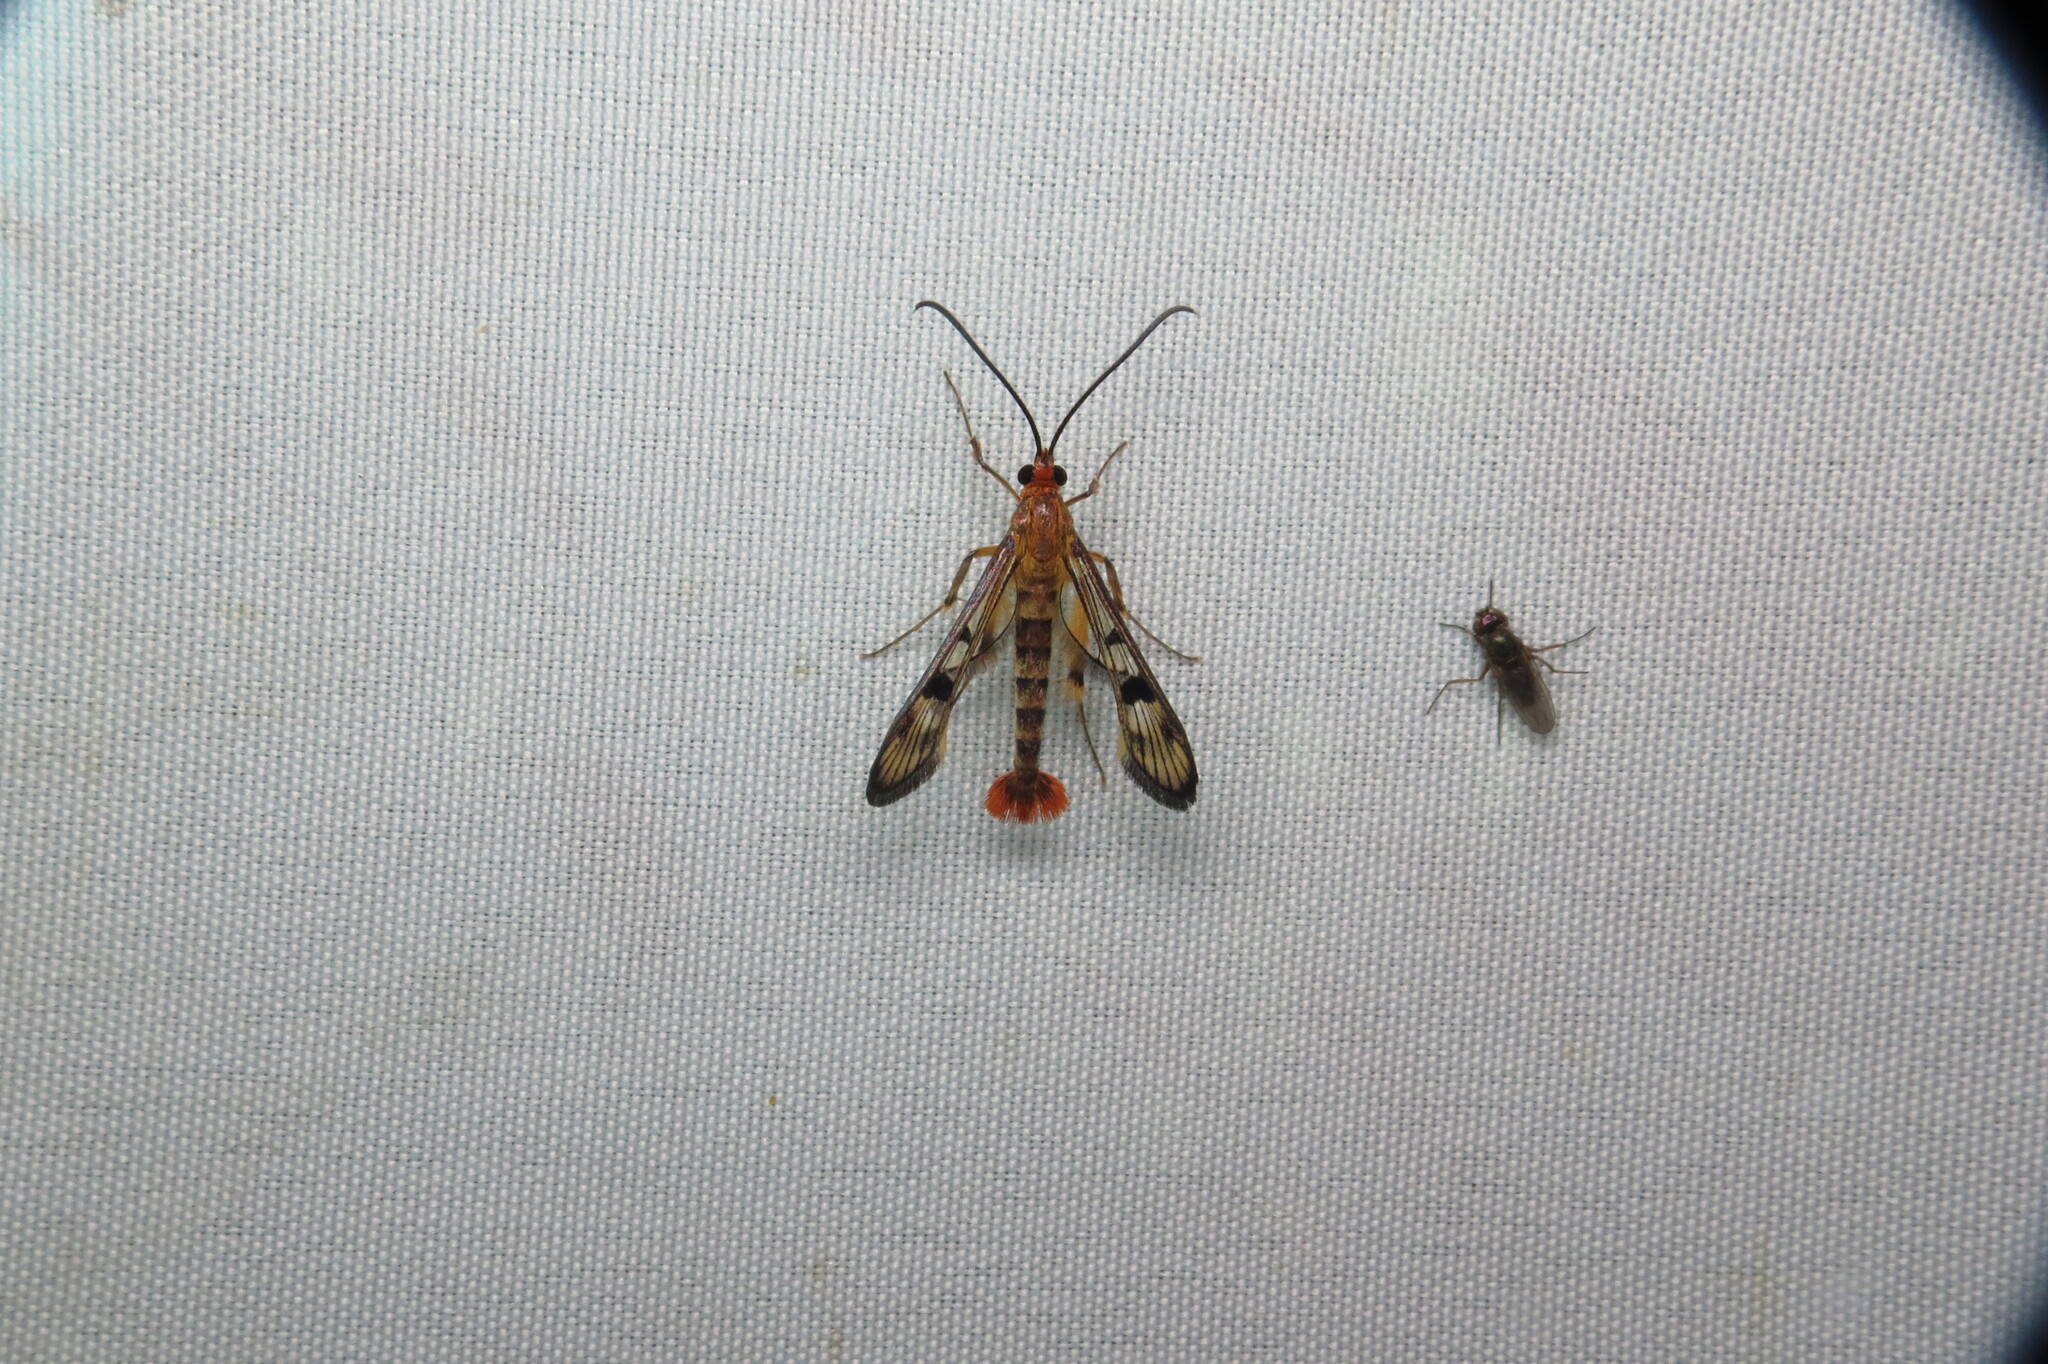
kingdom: Animalia
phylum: Arthropoda
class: Insecta
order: Lepidoptera
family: Sesiidae
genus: Synanthedon
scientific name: Synanthedon acerni
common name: Maple callus borer moth
